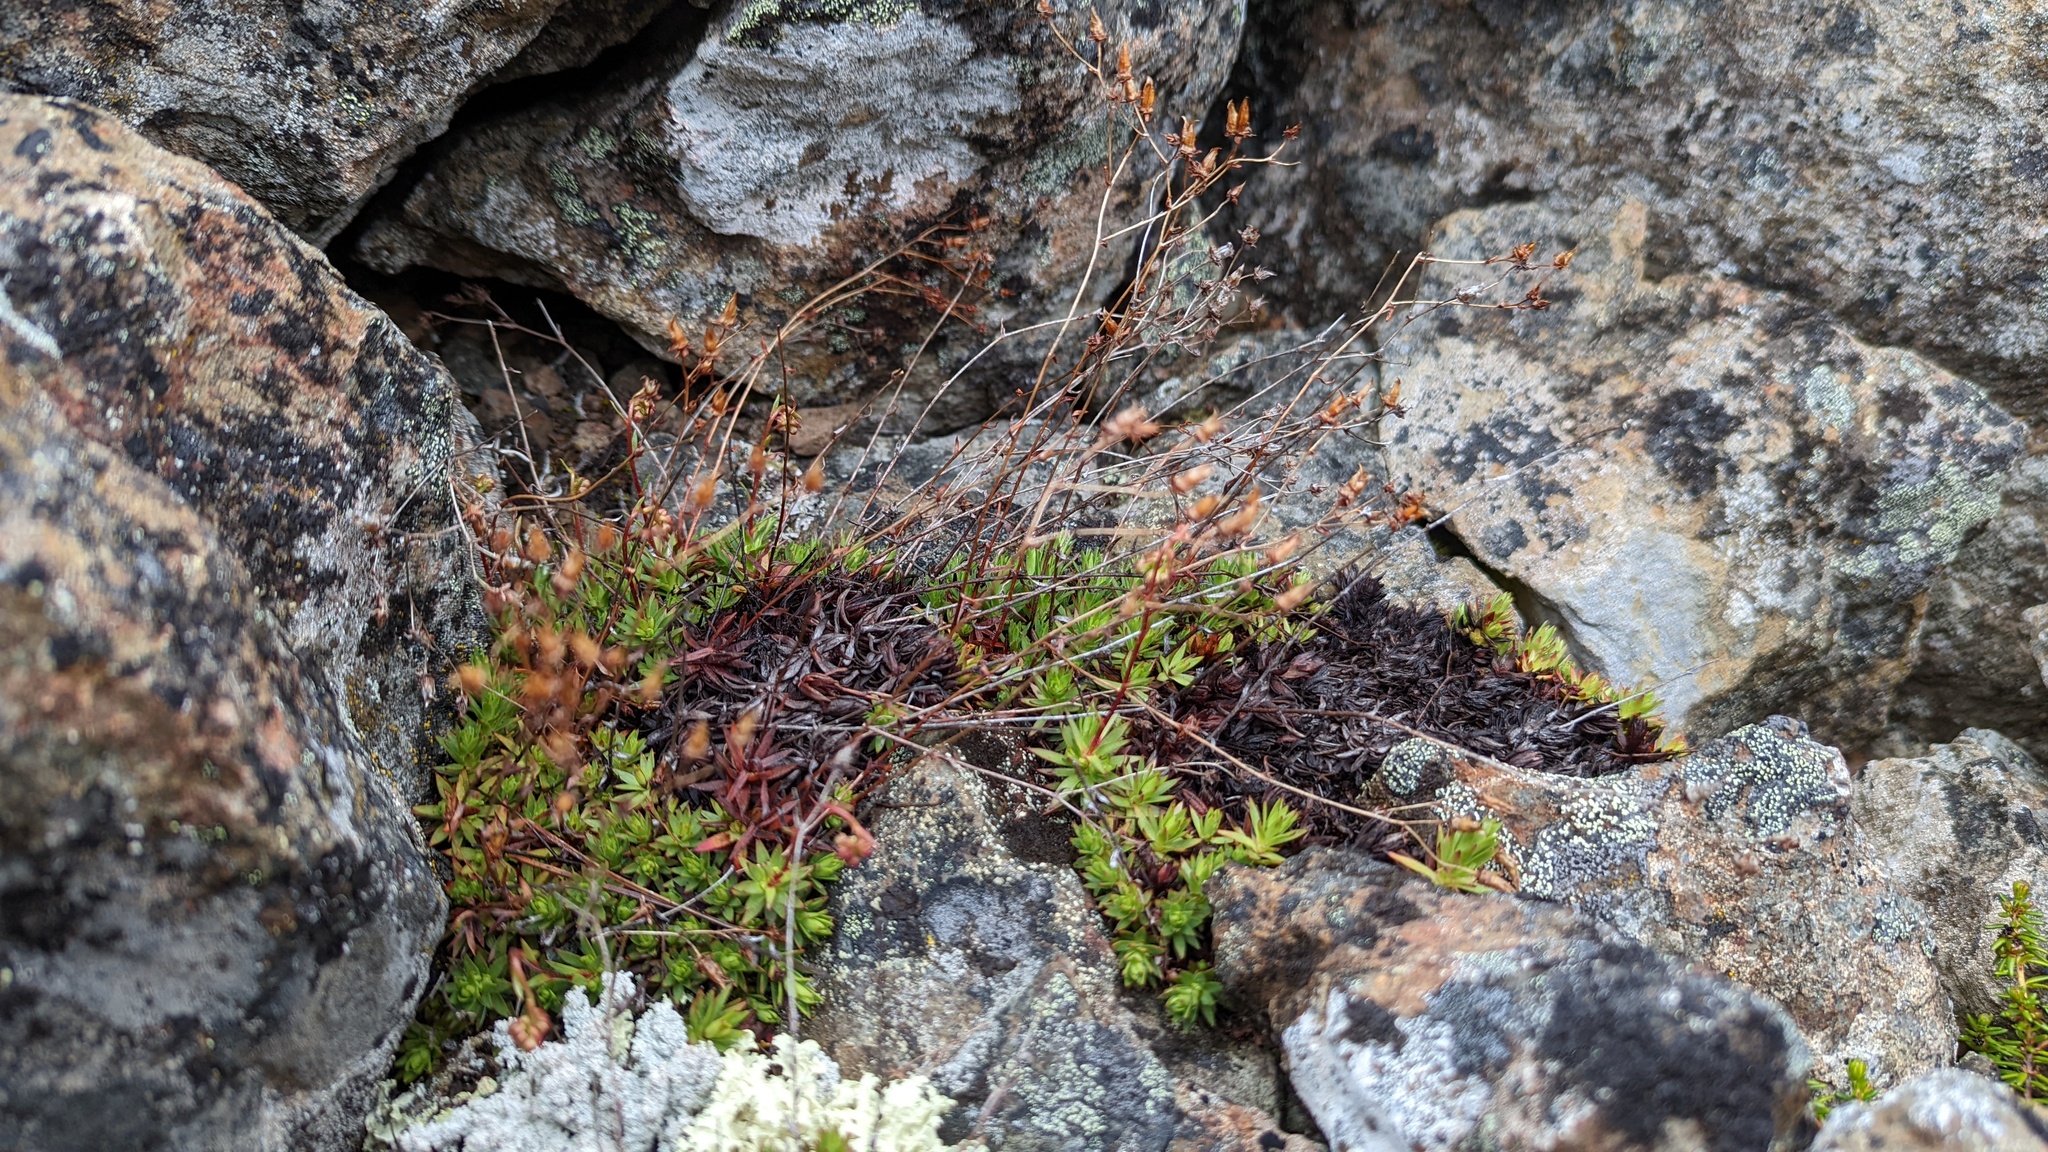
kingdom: Plantae
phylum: Tracheophyta
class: Magnoliopsida
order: Saxifragales
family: Saxifragaceae
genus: Saxifraga
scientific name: Saxifraga bronchialis
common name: Matted saxifrage
